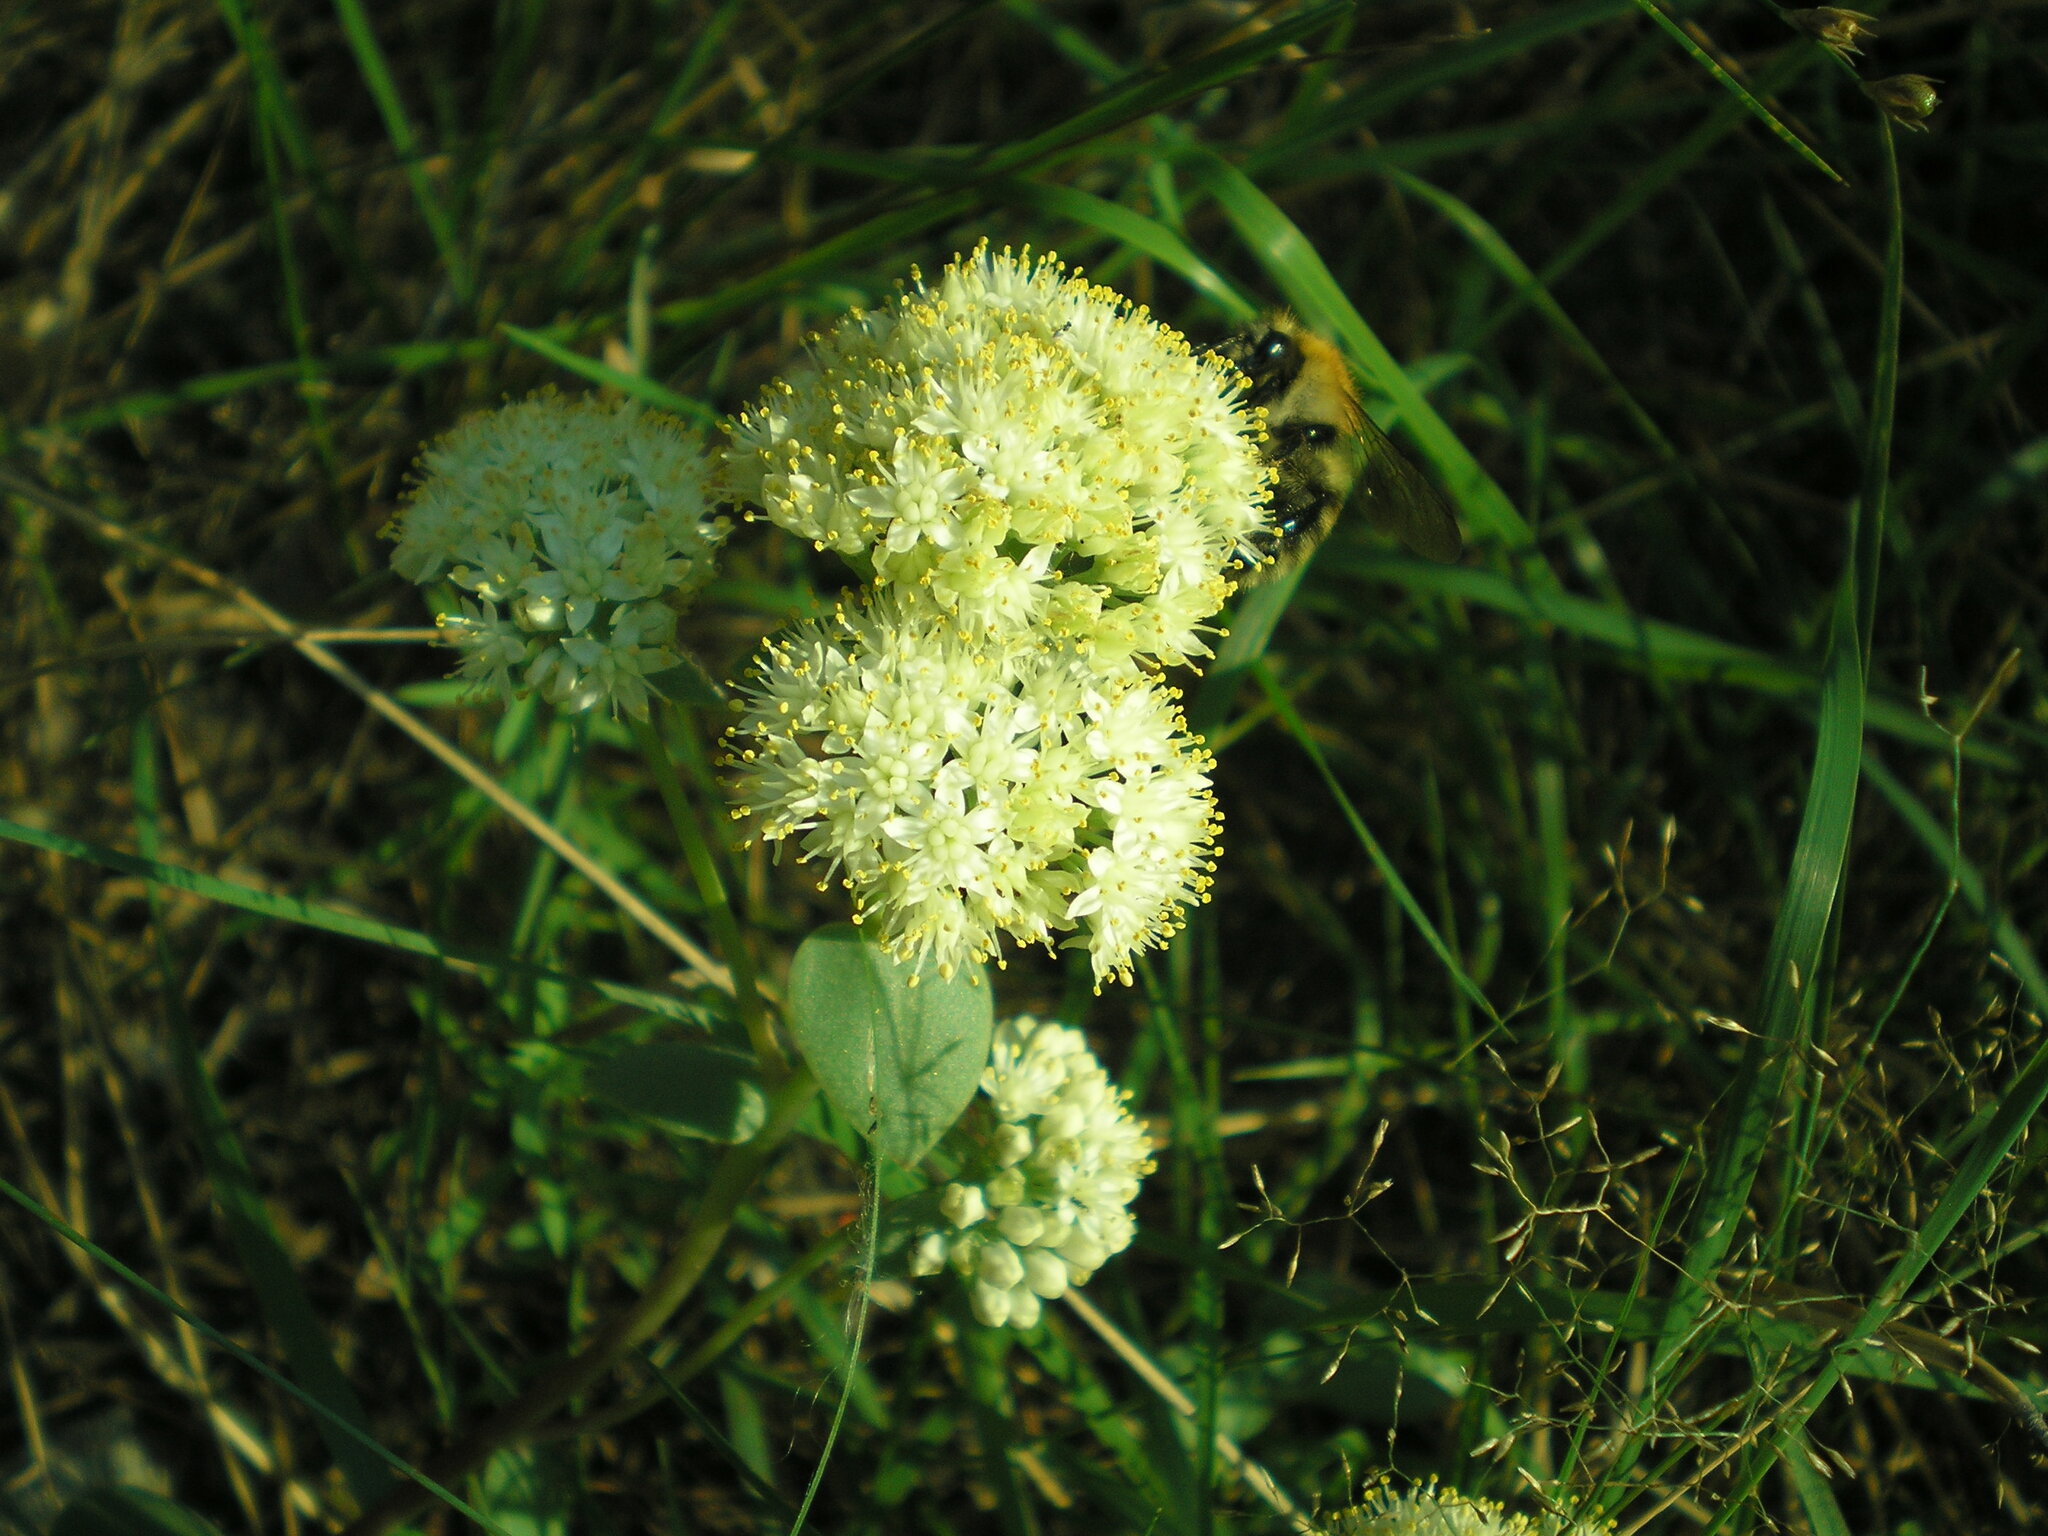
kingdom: Plantae
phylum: Tracheophyta
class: Magnoliopsida
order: Saxifragales
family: Crassulaceae
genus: Hylotelephium
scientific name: Hylotelephium maximum
